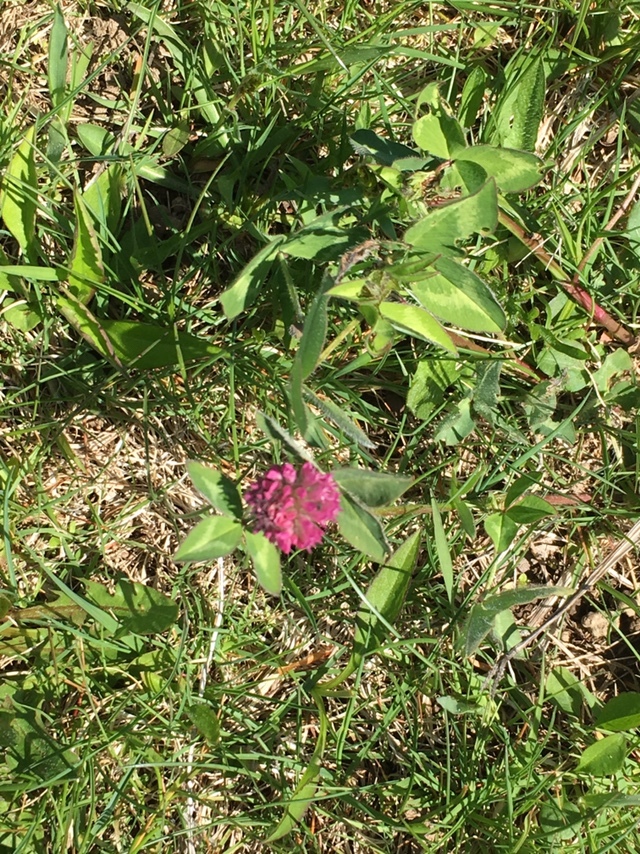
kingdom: Plantae
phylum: Tracheophyta
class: Magnoliopsida
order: Fabales
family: Fabaceae
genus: Trifolium
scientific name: Trifolium pratense
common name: Red clover
